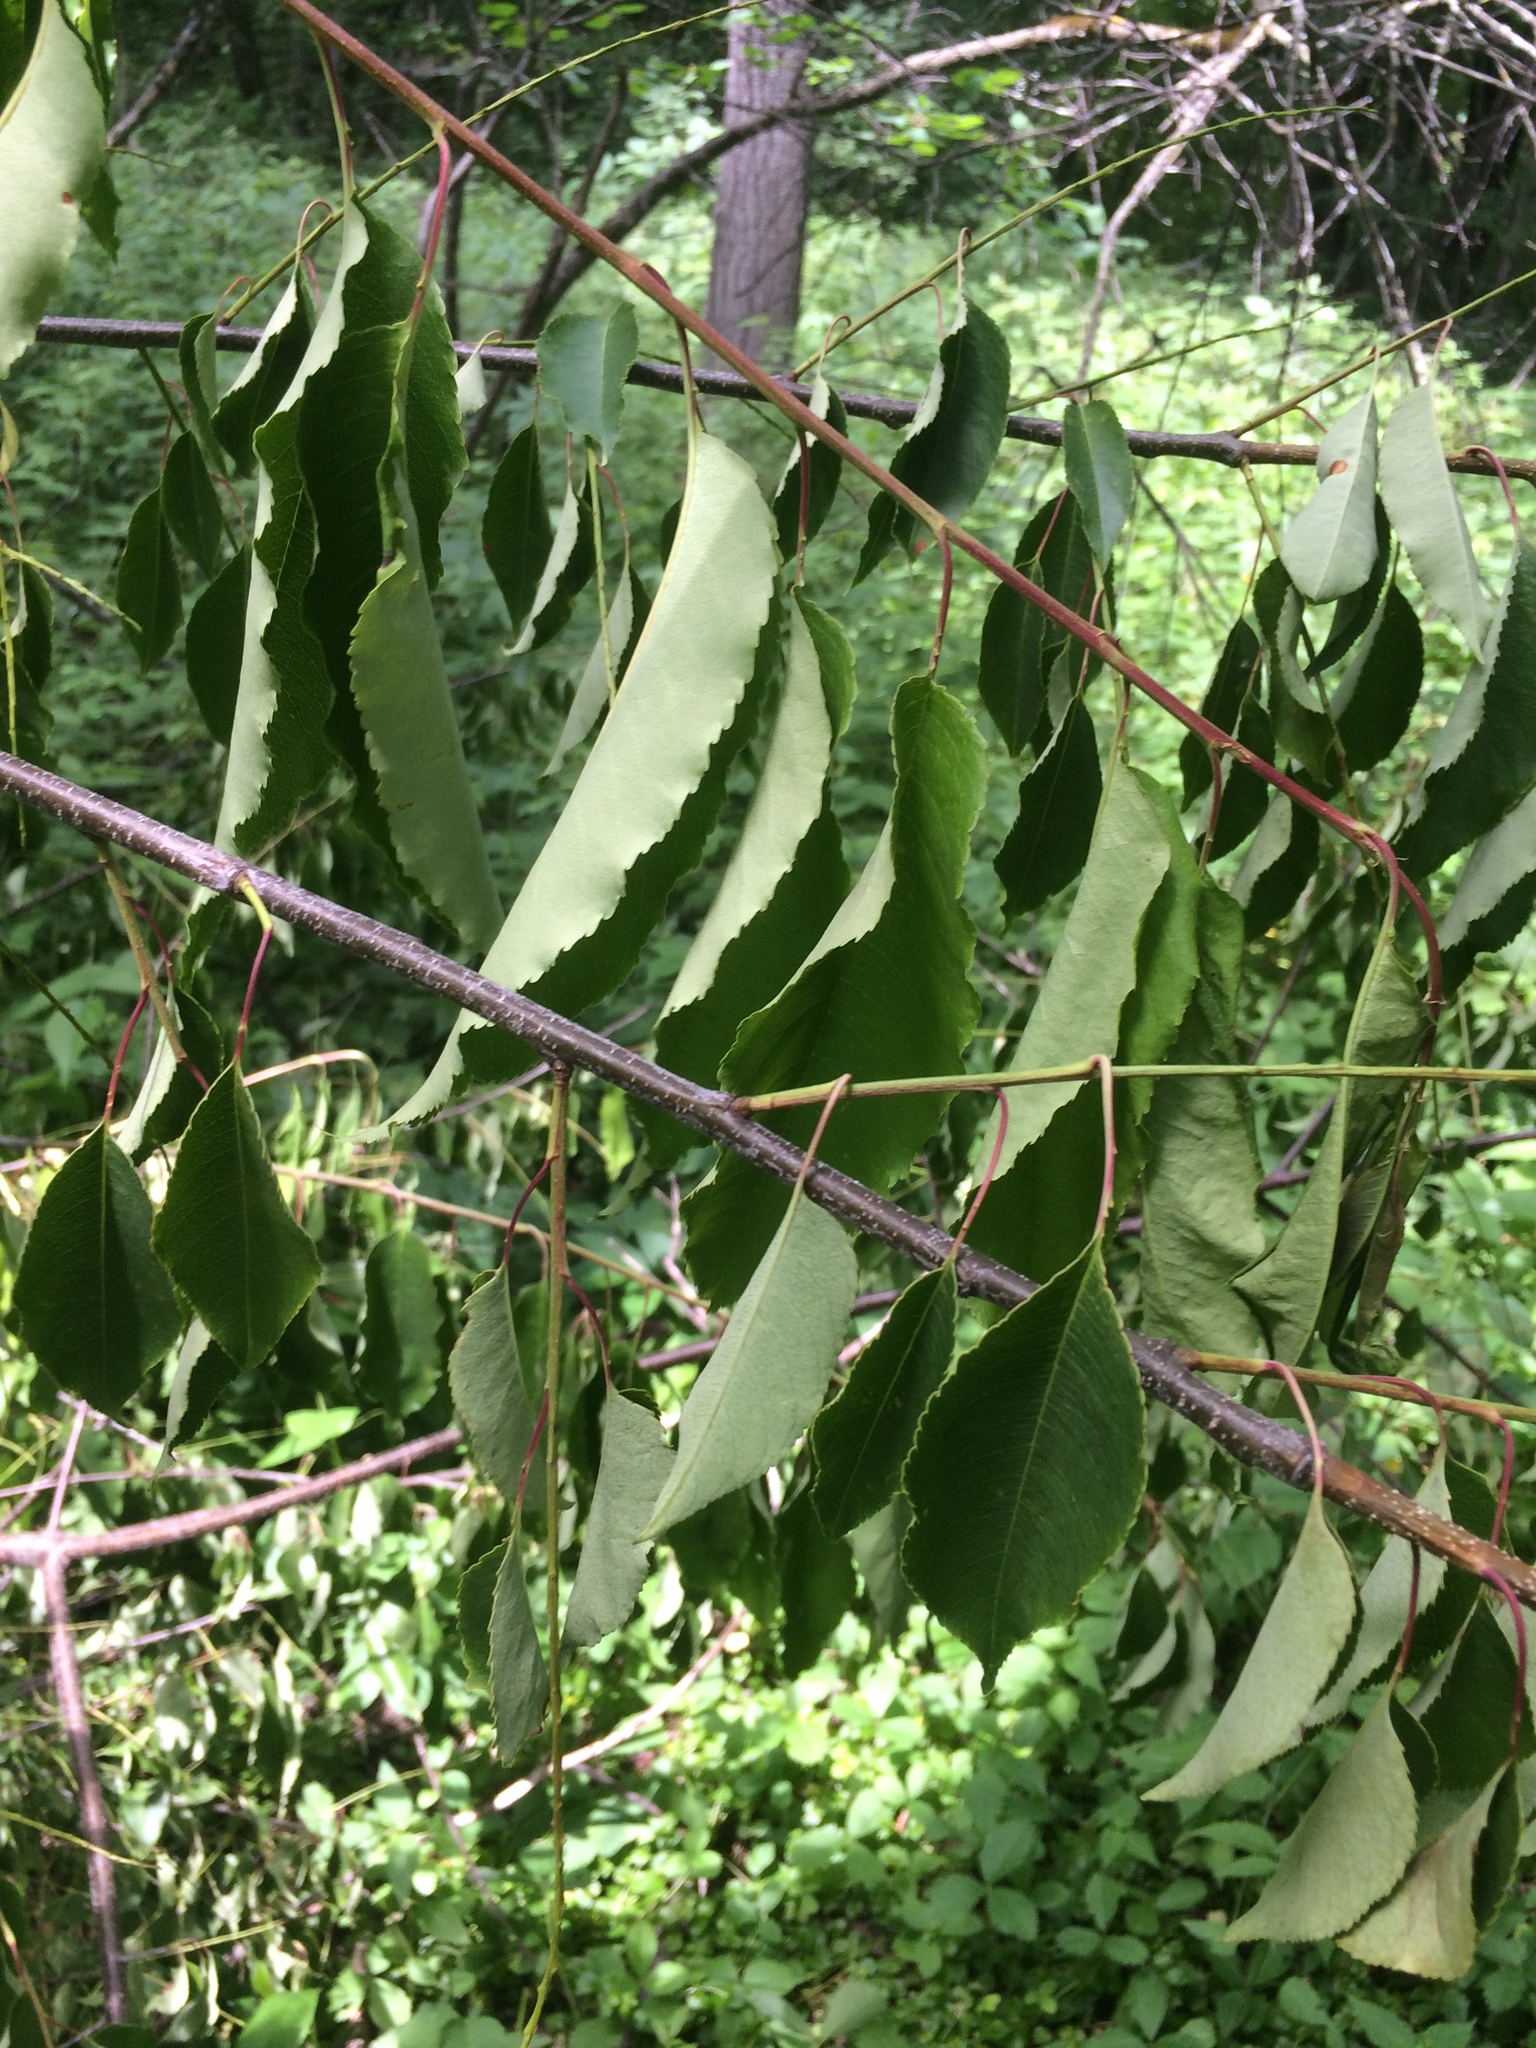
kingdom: Plantae
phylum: Tracheophyta
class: Magnoliopsida
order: Rosales
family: Rosaceae
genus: Prunus
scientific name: Prunus serotina
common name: Black cherry
